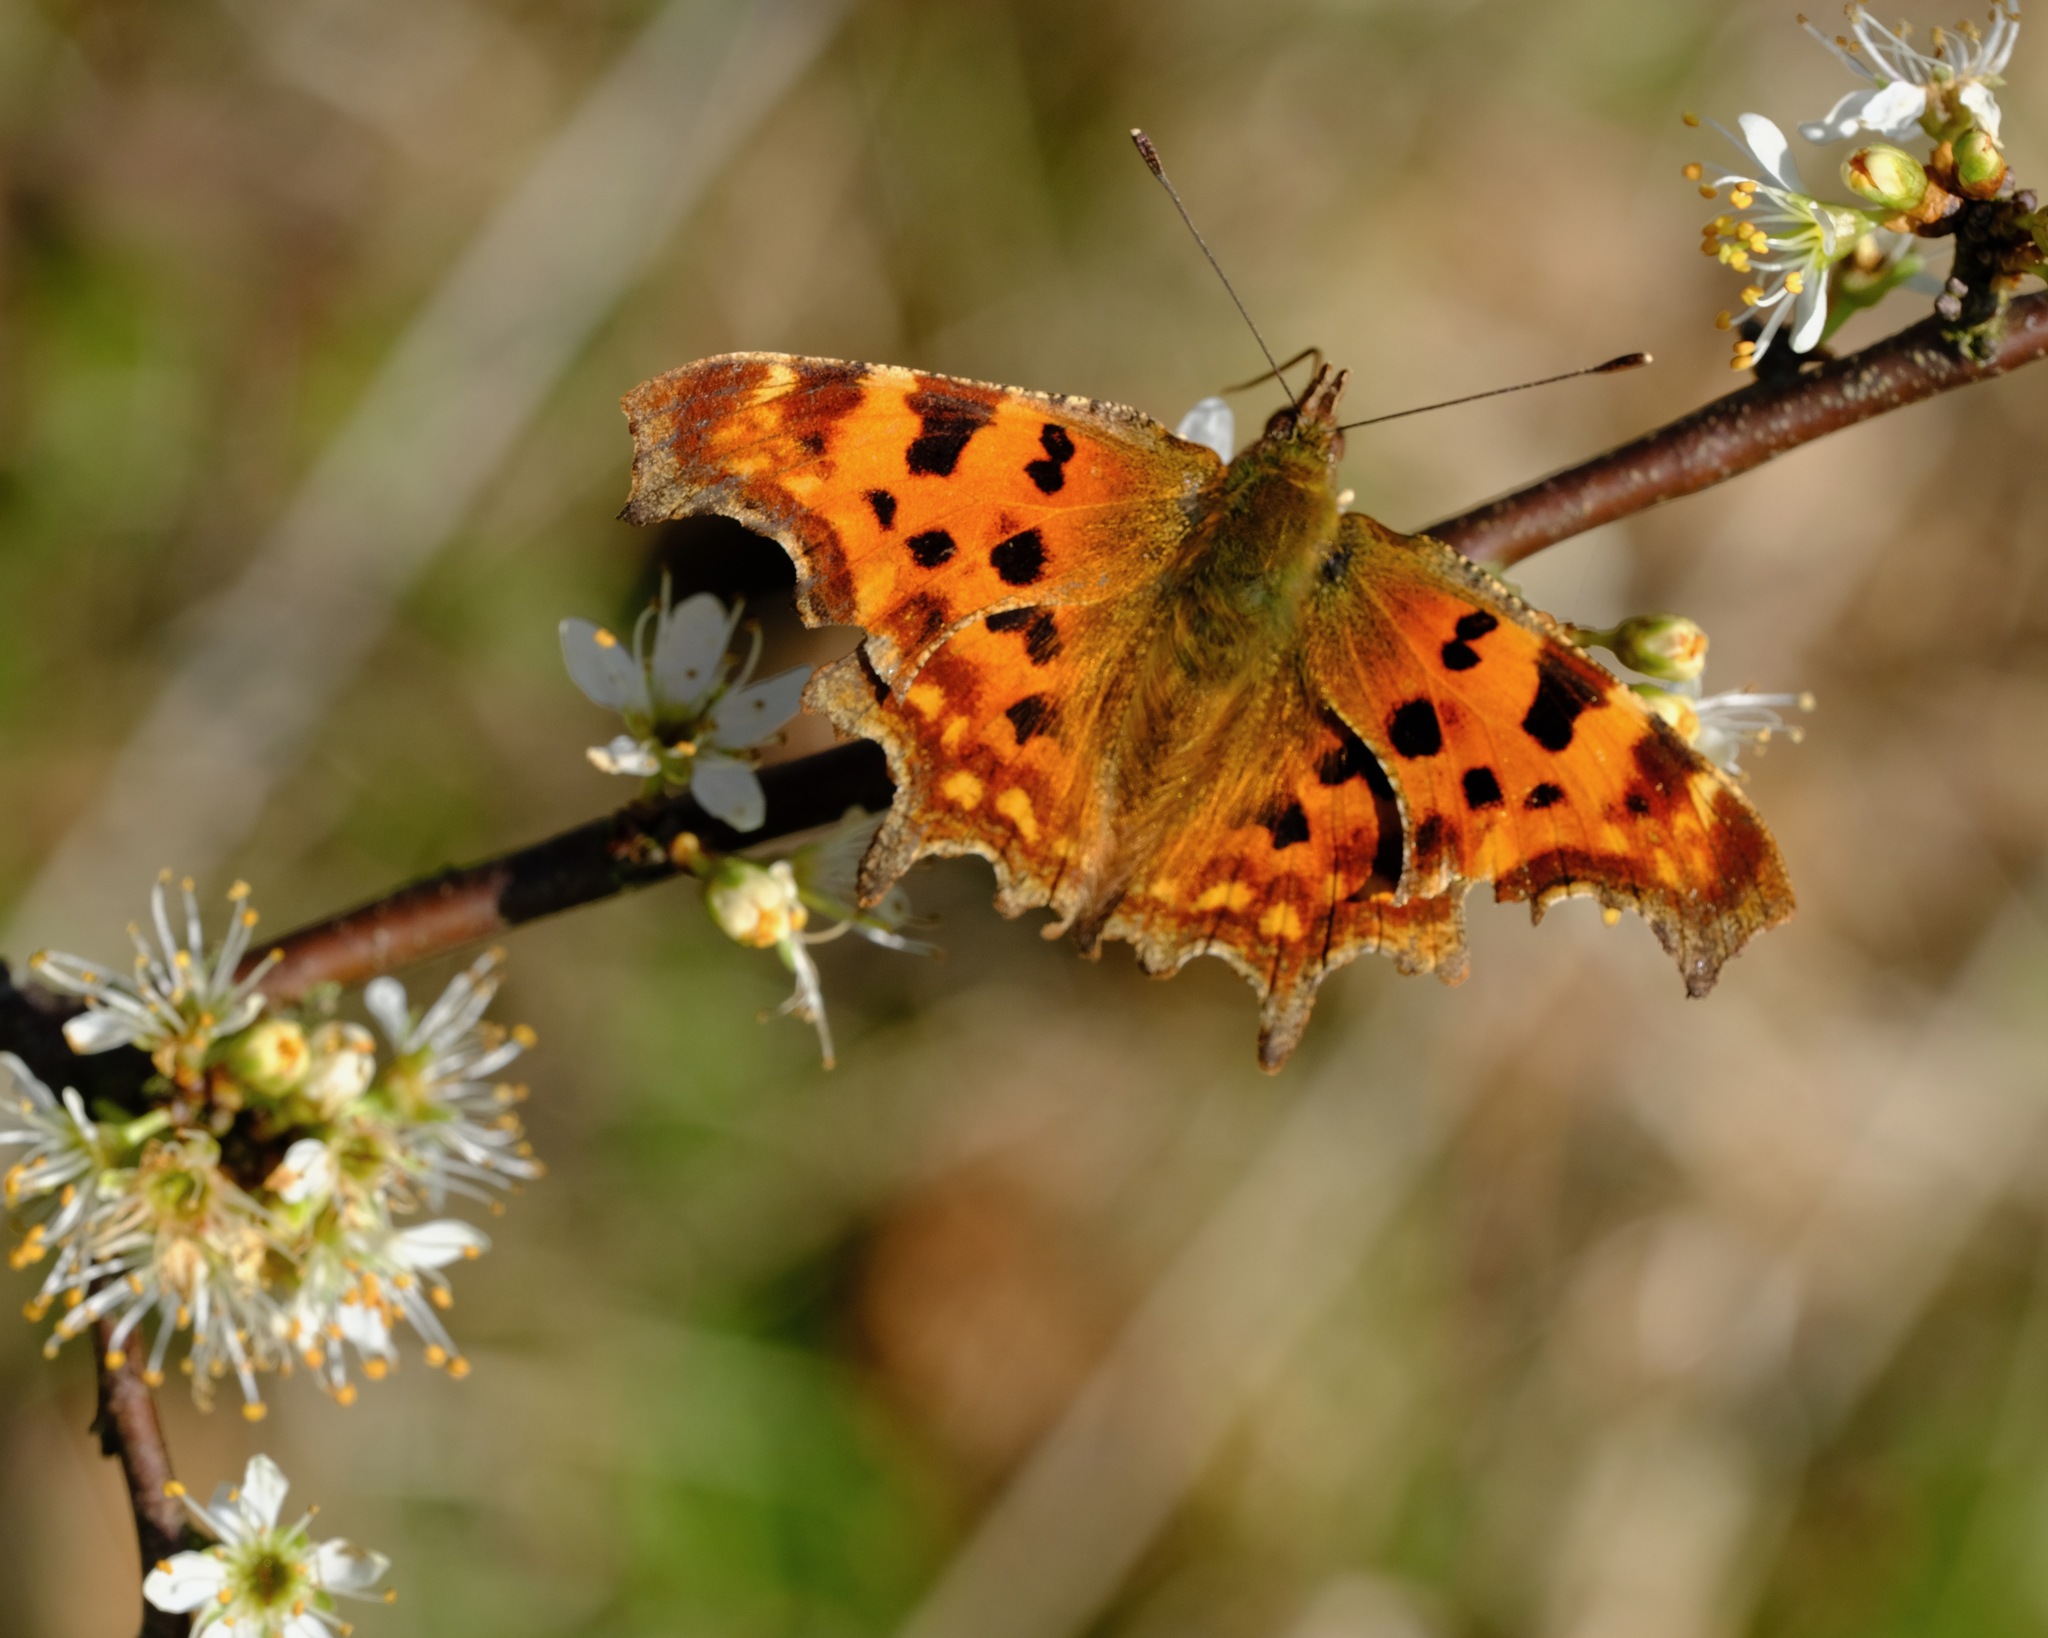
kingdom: Animalia
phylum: Arthropoda
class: Insecta
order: Lepidoptera
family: Nymphalidae
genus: Polygonia
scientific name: Polygonia c-album
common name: Comma
